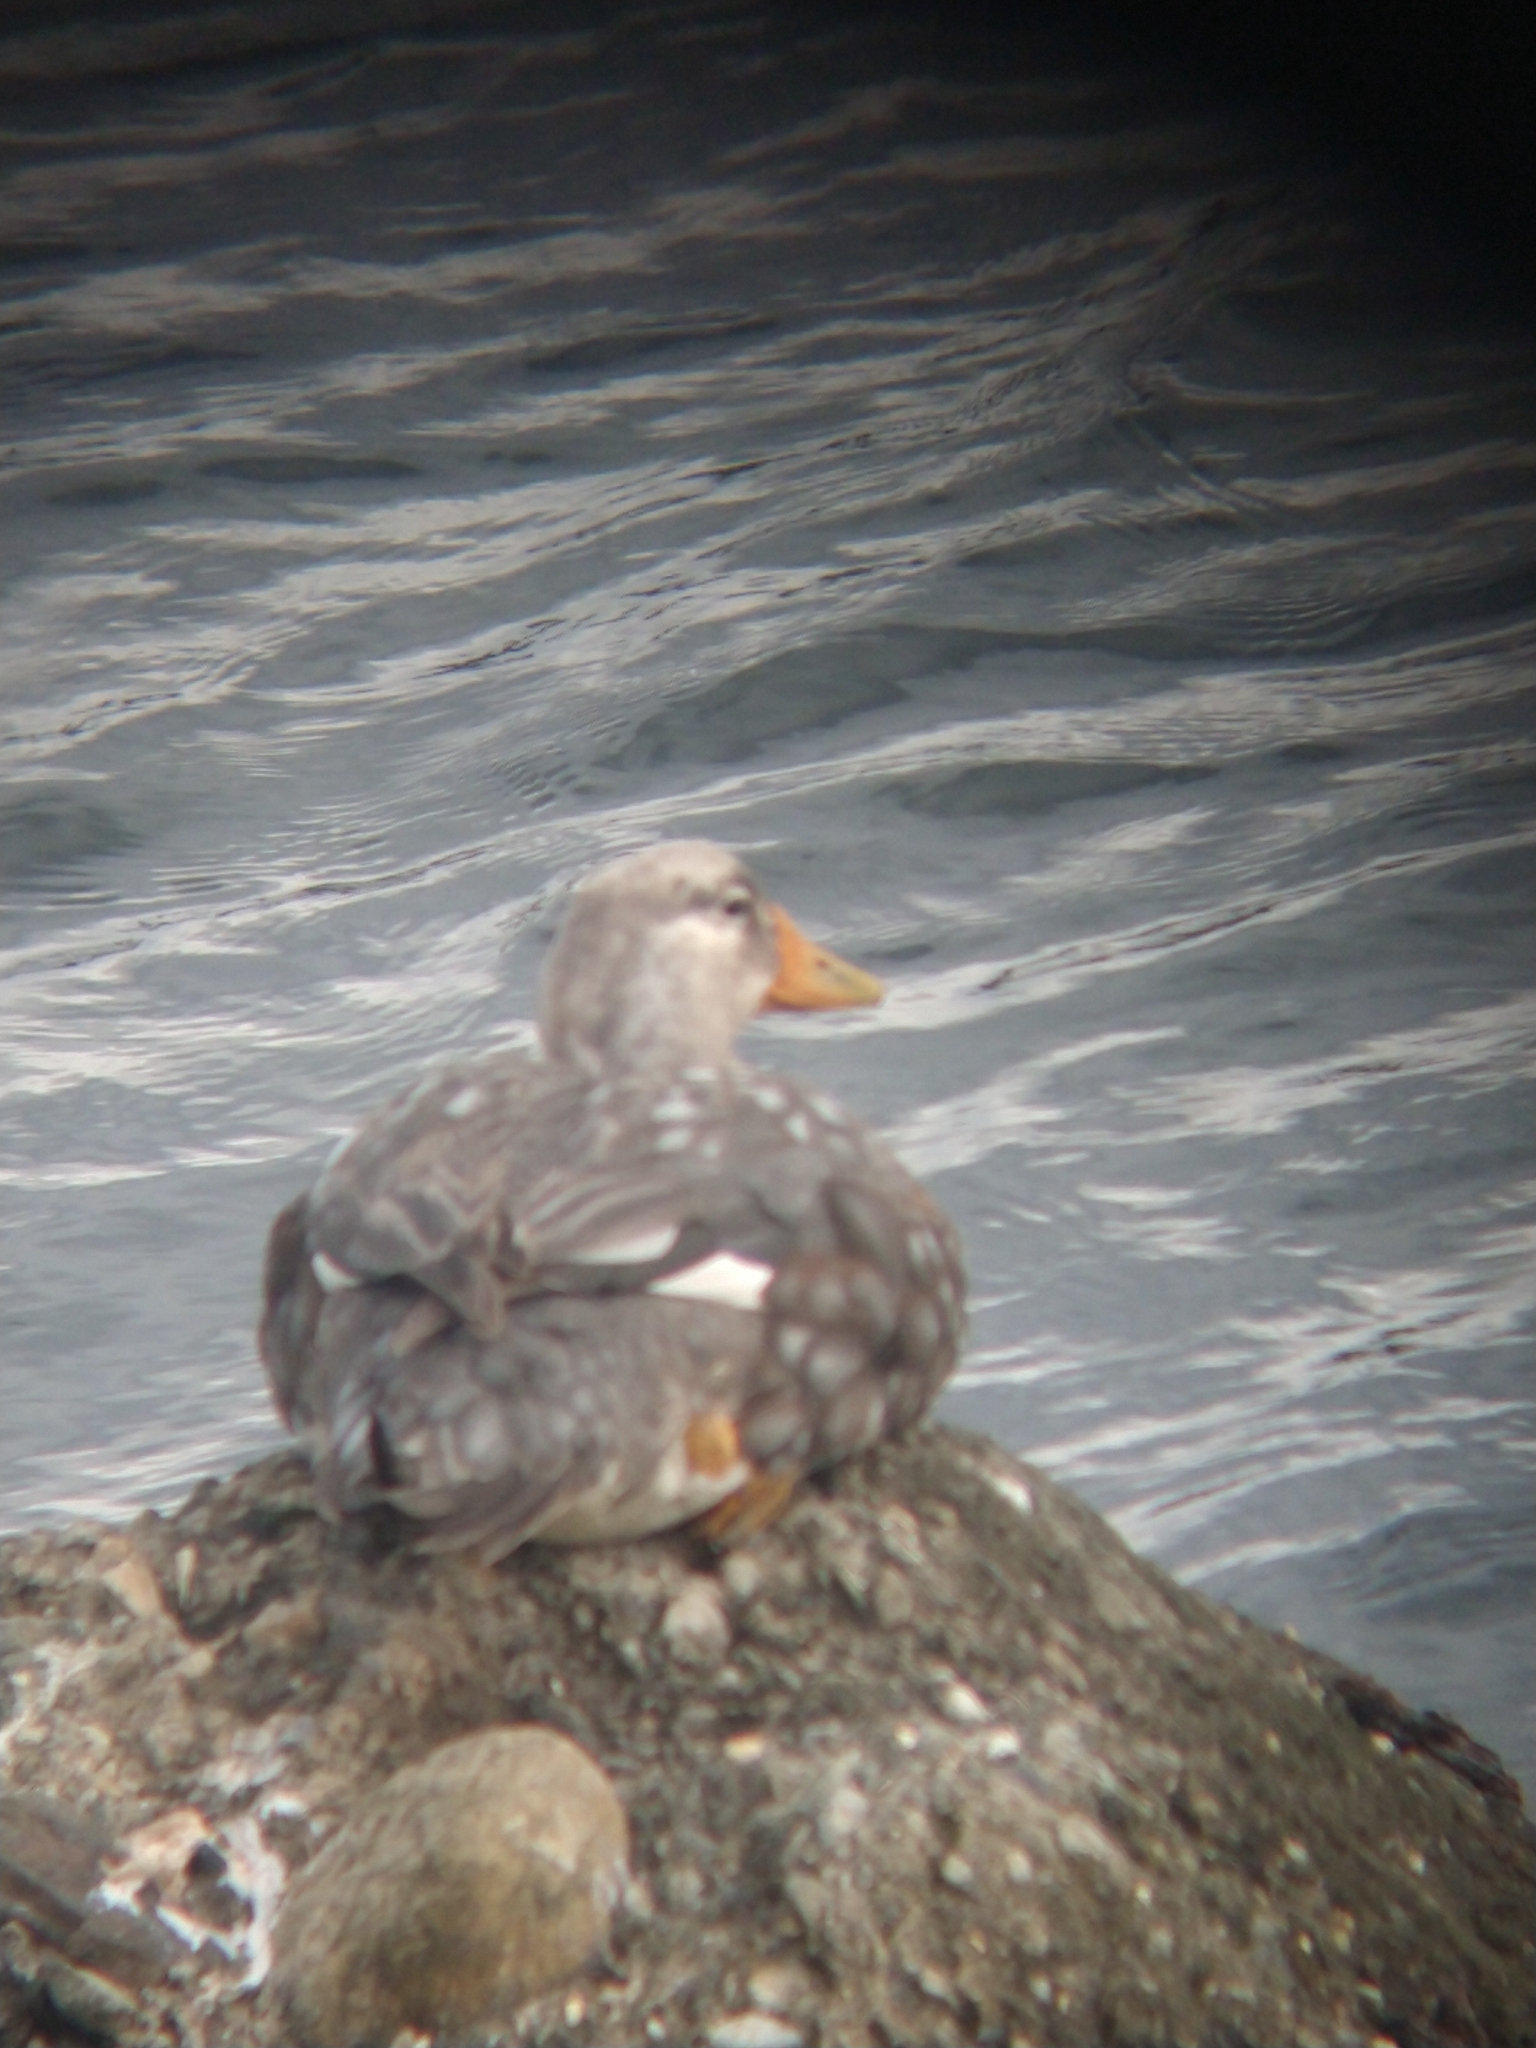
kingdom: Animalia
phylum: Chordata
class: Aves
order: Anseriformes
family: Anatidae
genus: Tachyeres
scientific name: Tachyeres patachonicus
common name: Flying steamer duck
